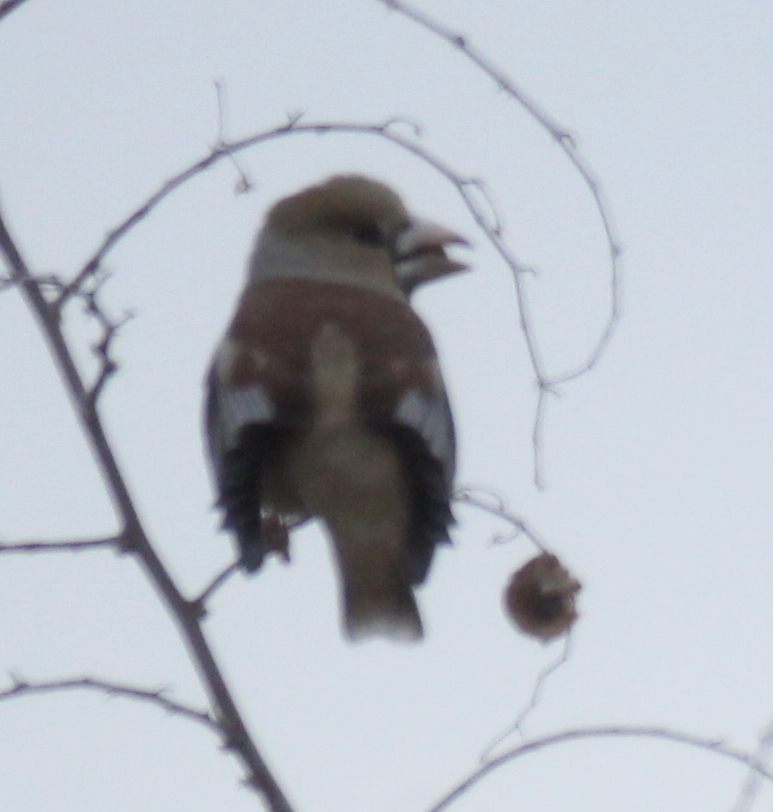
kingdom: Animalia
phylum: Chordata
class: Aves
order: Passeriformes
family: Fringillidae
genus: Coccothraustes
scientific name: Coccothraustes coccothraustes
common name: Hawfinch
